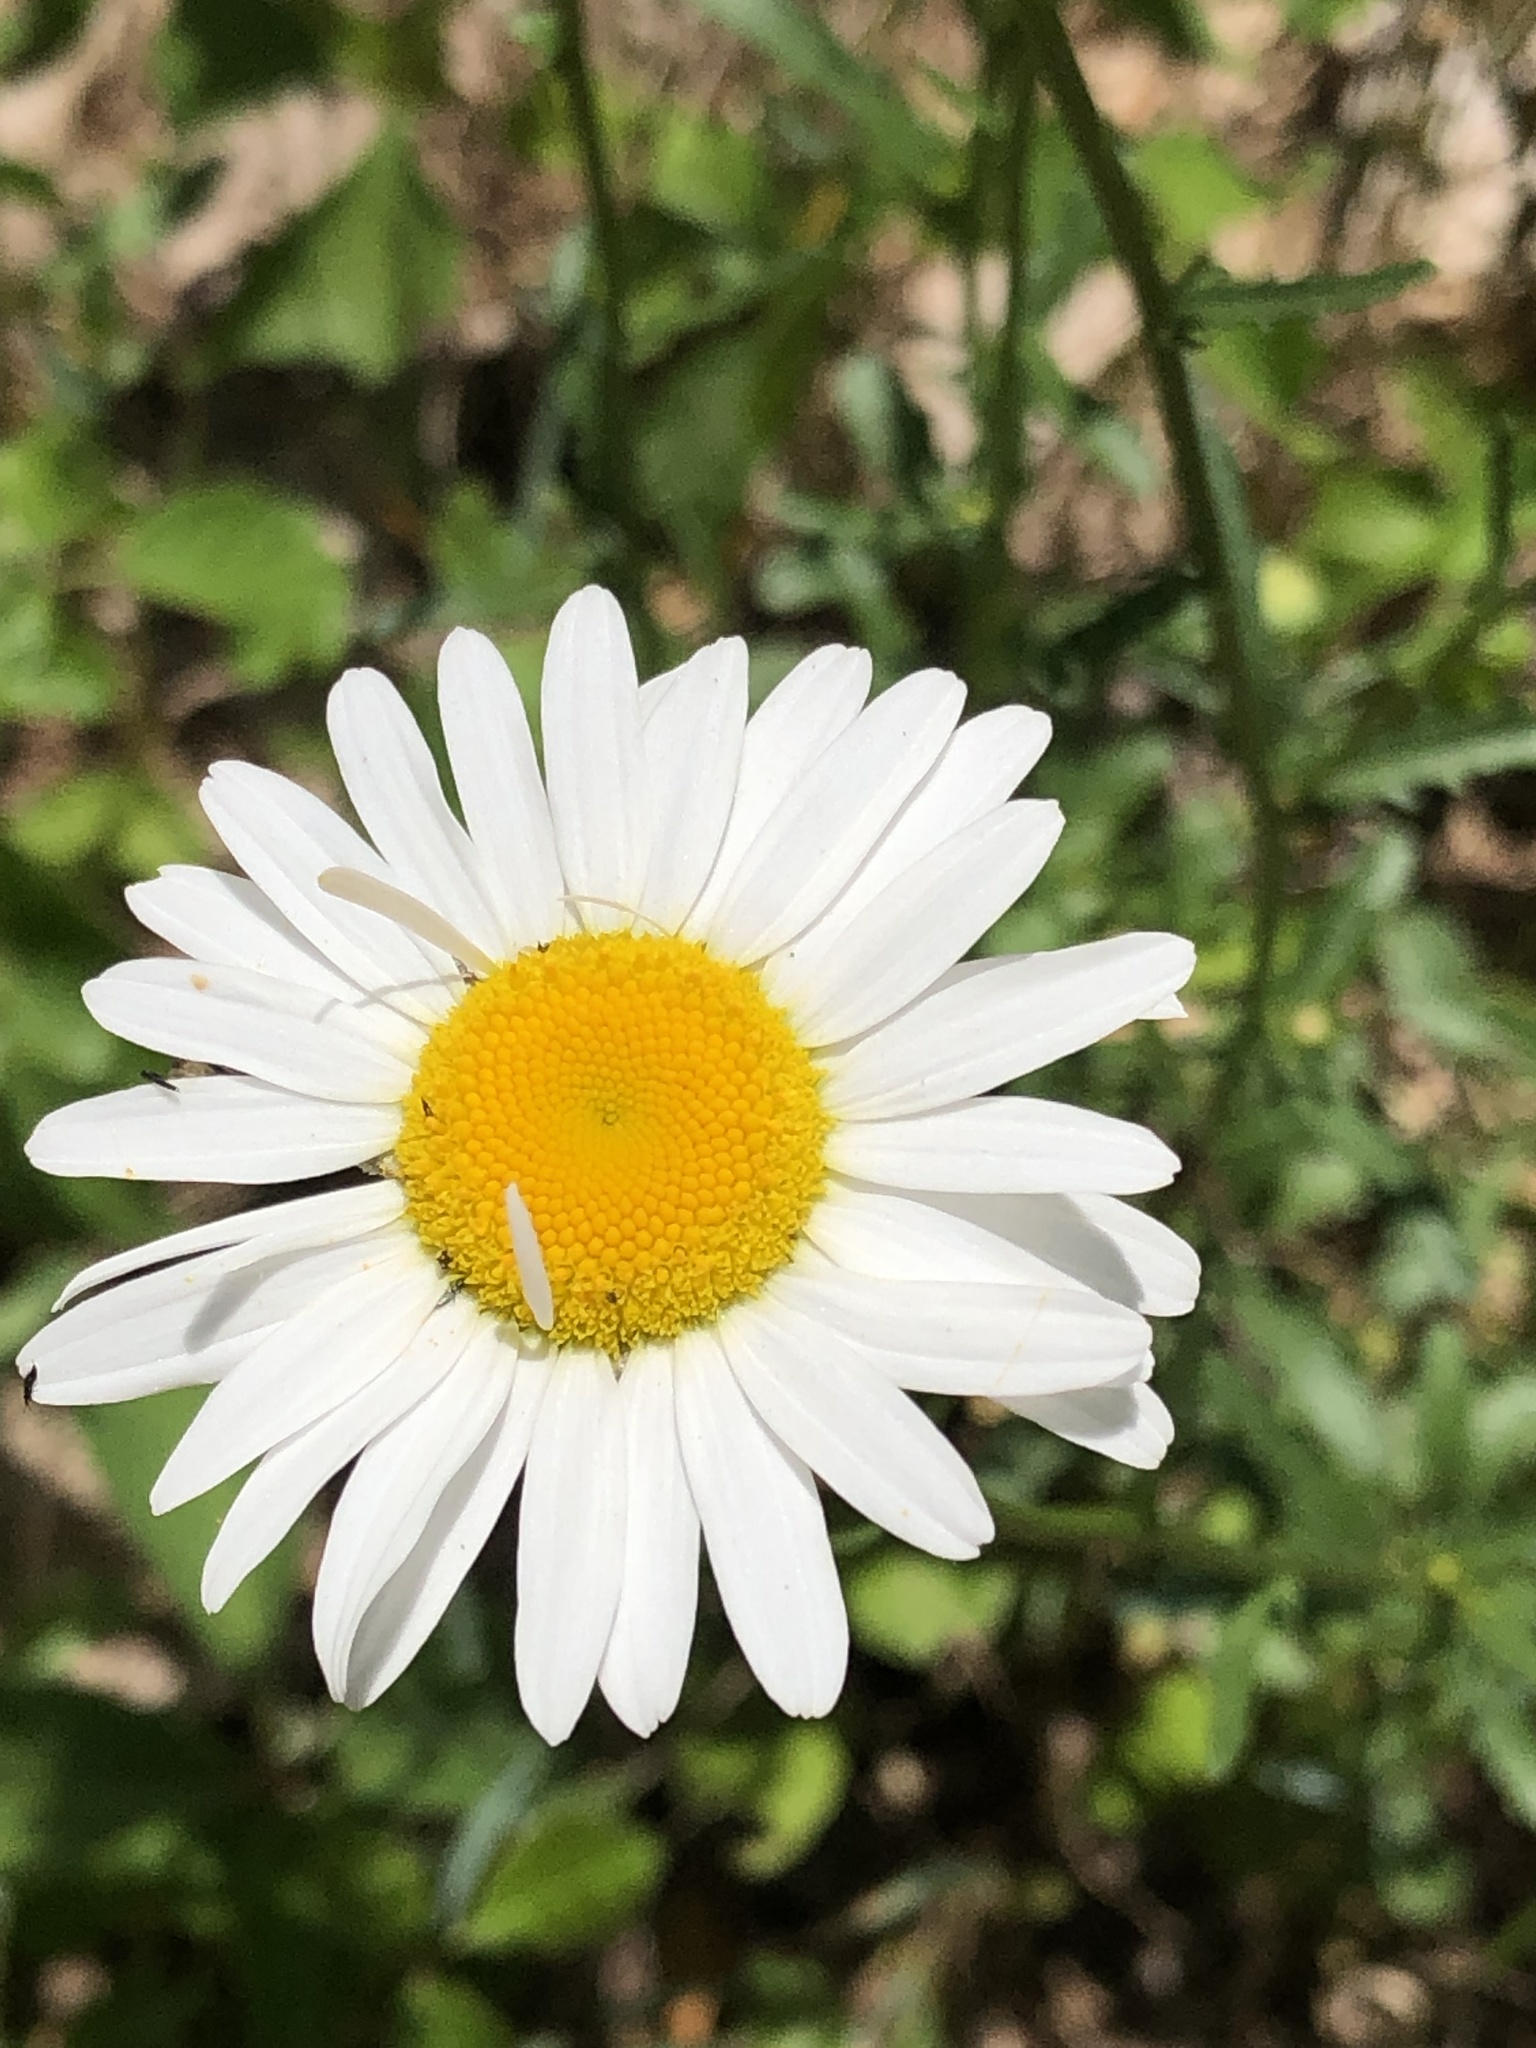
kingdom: Plantae
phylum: Tracheophyta
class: Magnoliopsida
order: Asterales
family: Asteraceae
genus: Leucanthemum
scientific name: Leucanthemum vulgare
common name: Oxeye daisy
